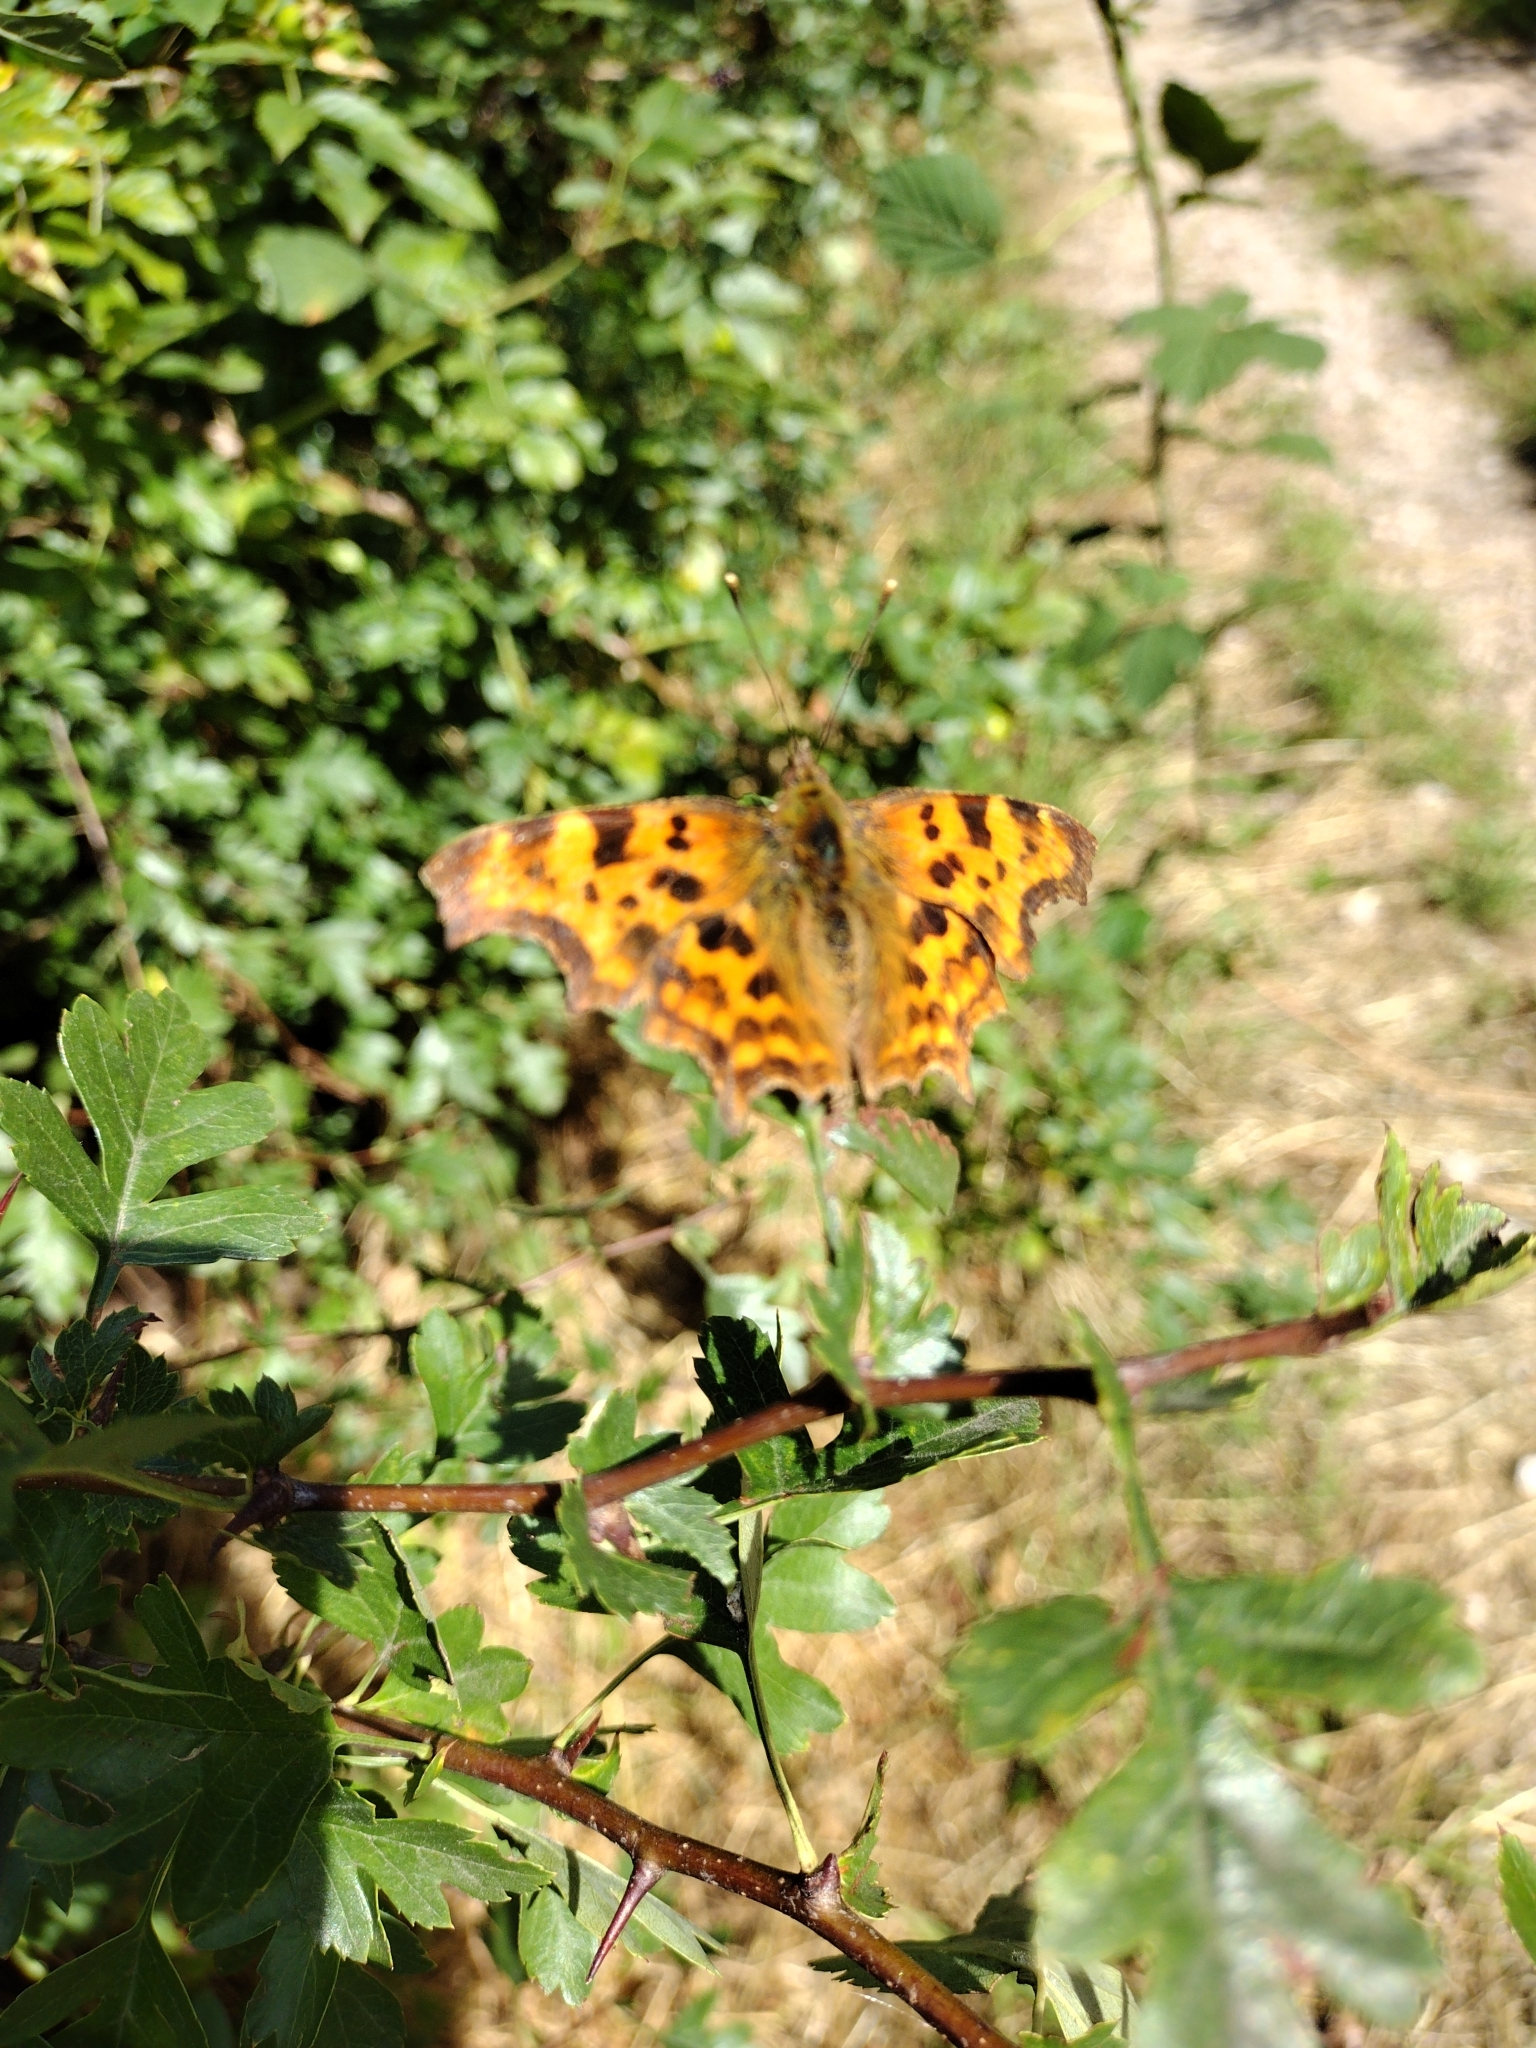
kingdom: Animalia
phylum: Arthropoda
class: Insecta
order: Lepidoptera
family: Nymphalidae
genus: Polygonia
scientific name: Polygonia c-album
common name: Comma
